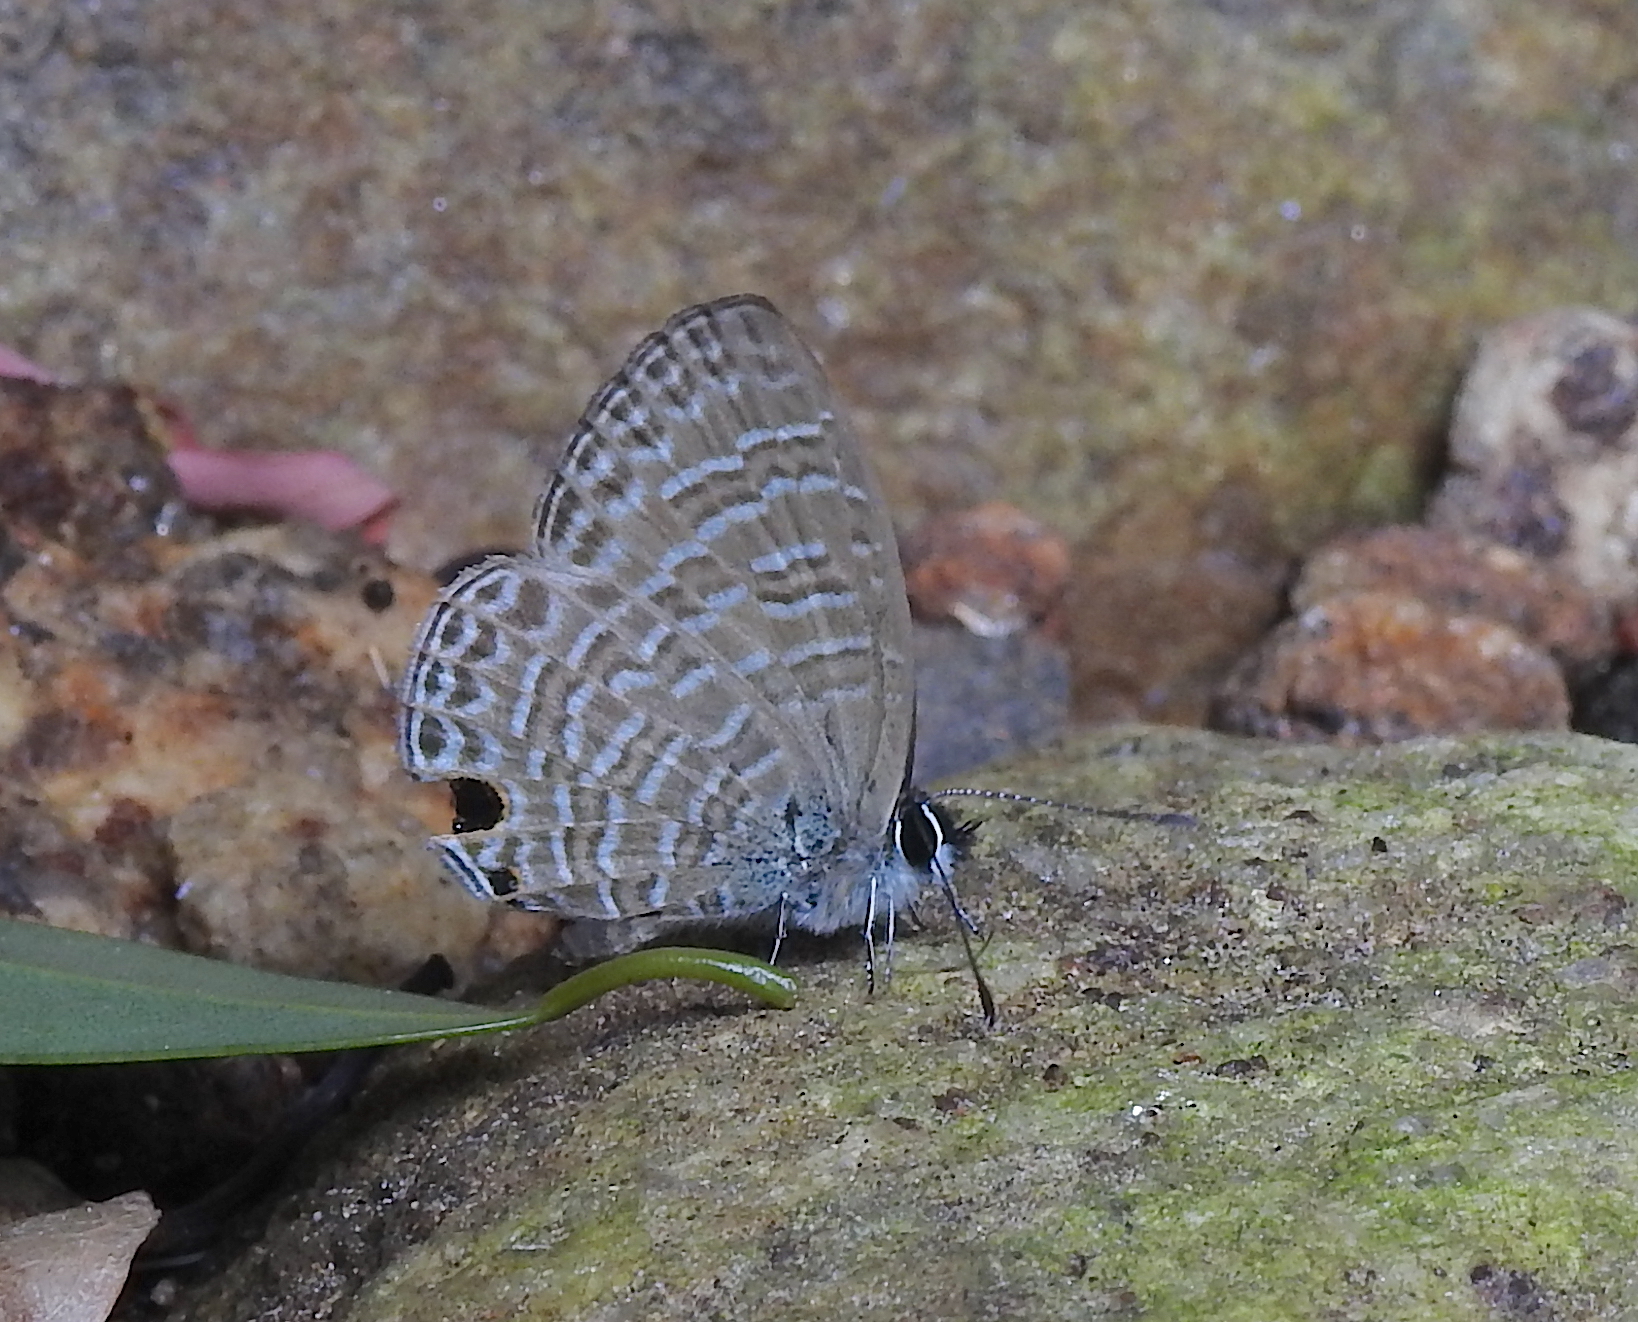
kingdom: Animalia
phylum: Arthropoda
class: Insecta
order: Lepidoptera
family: Lycaenidae
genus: Nacaduba
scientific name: Nacaduba sinhala
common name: Pale ceylon line blue
